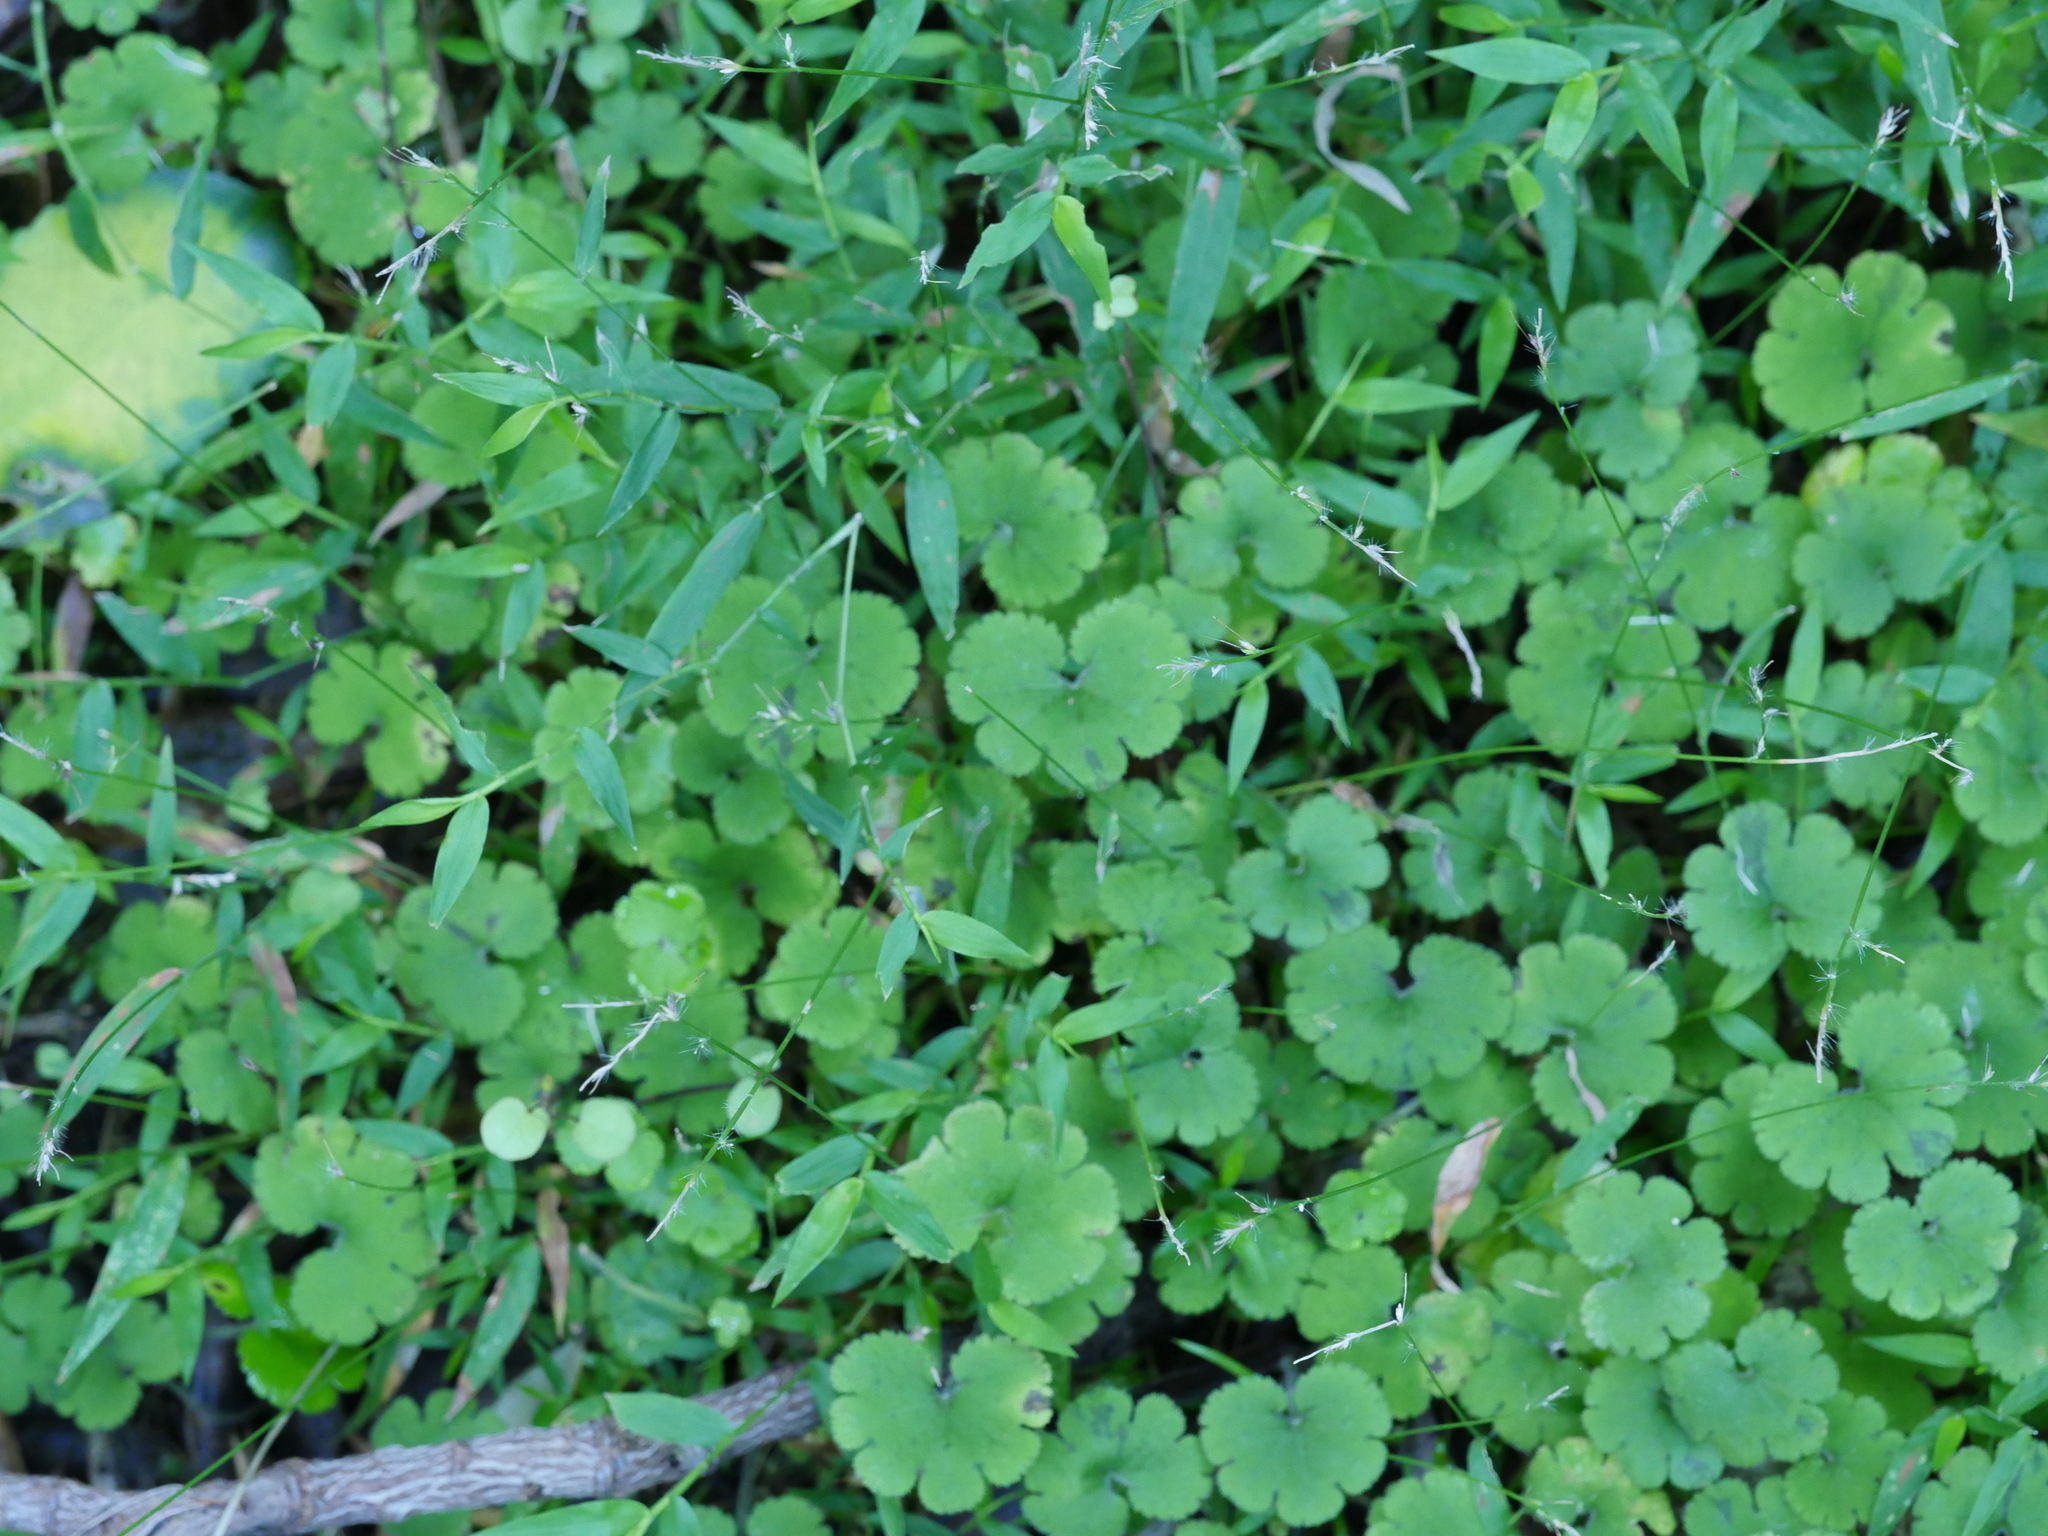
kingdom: Plantae
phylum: Tracheophyta
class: Magnoliopsida
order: Apiales
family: Araliaceae
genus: Hydrocotyle
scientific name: Hydrocotyle elongata
